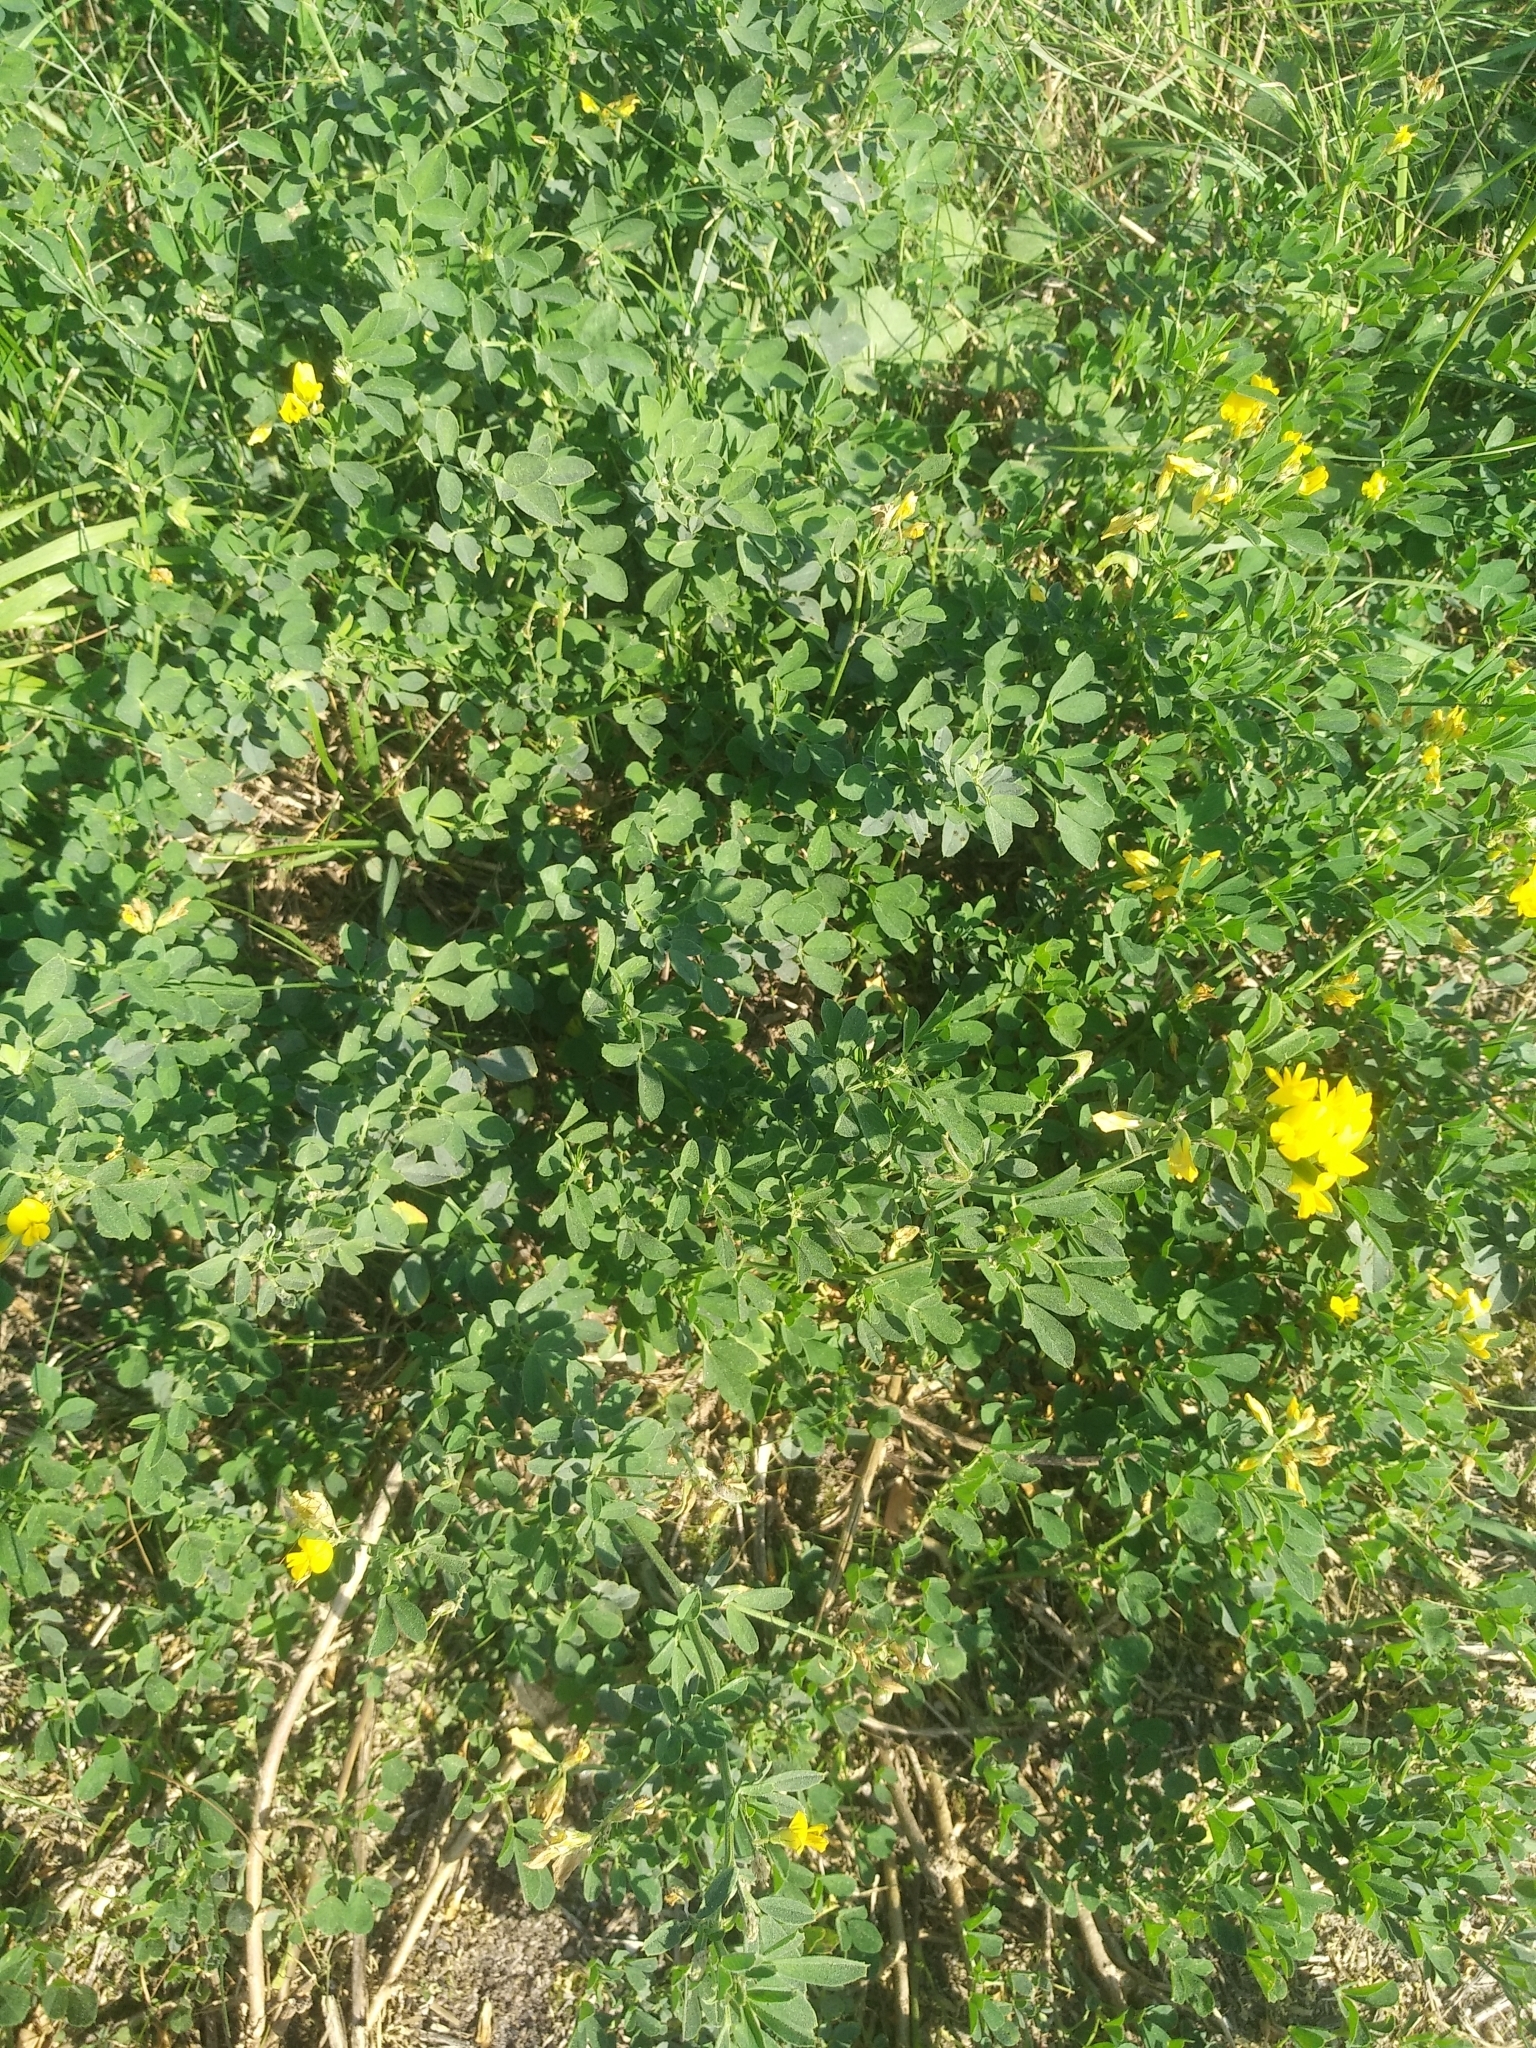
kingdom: Plantae
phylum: Tracheophyta
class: Magnoliopsida
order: Fabales
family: Fabaceae
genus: Medicago
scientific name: Medicago falcata
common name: Sickle medick
